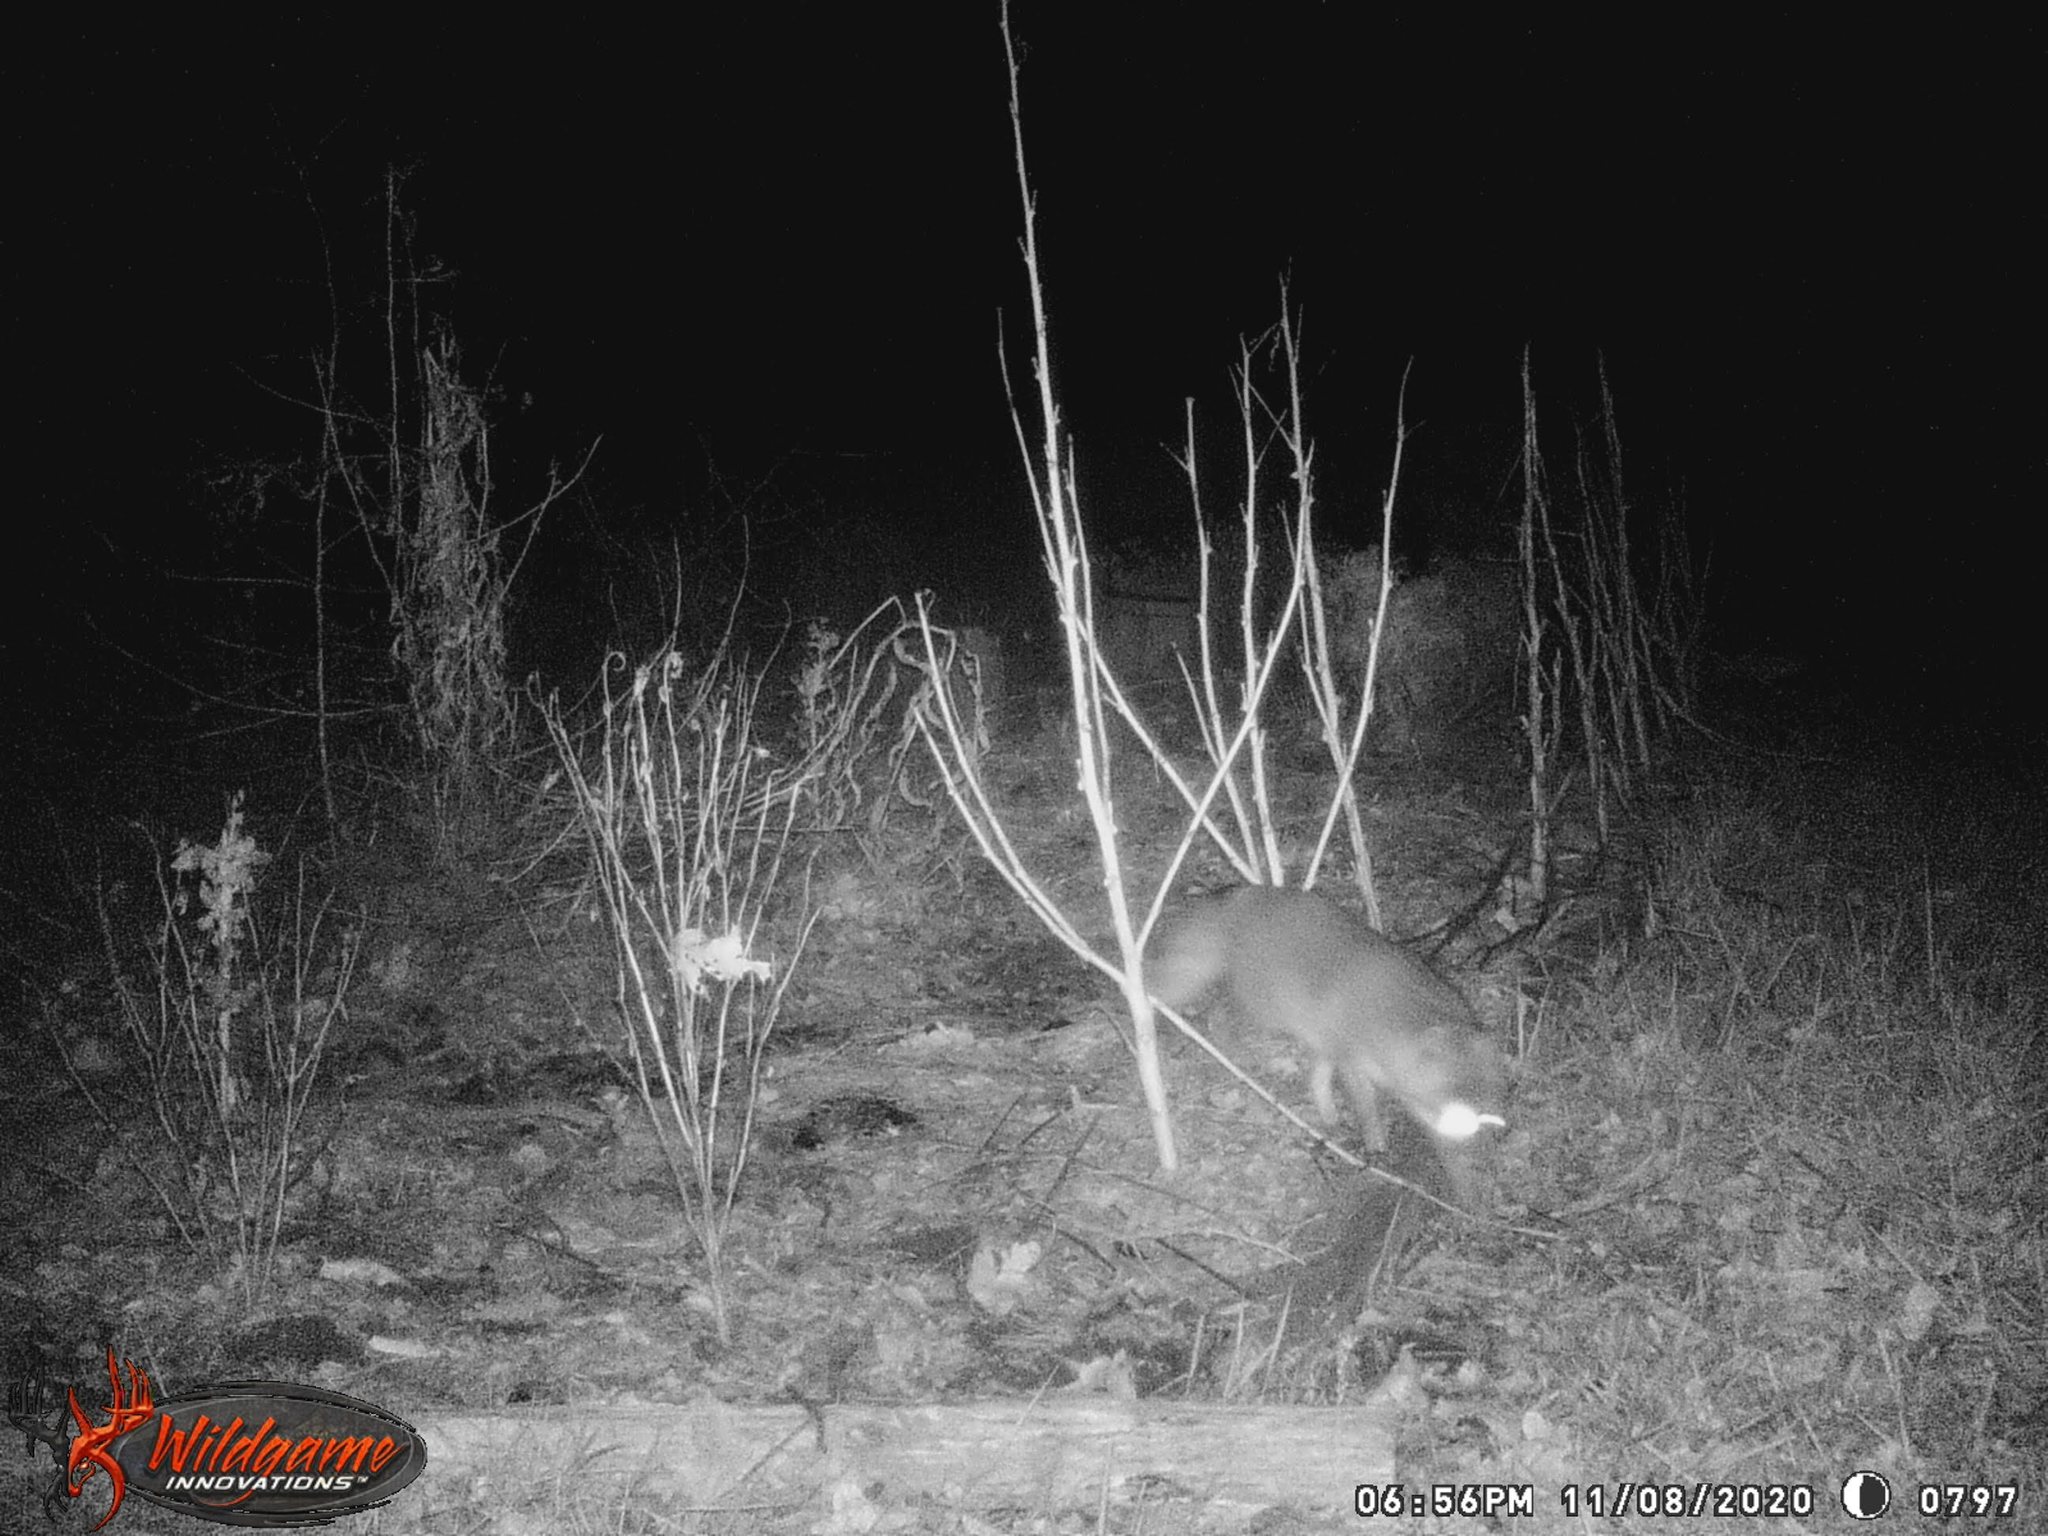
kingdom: Animalia
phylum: Chordata
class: Mammalia
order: Carnivora
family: Canidae
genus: Urocyon
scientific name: Urocyon cinereoargenteus
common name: Gray fox
